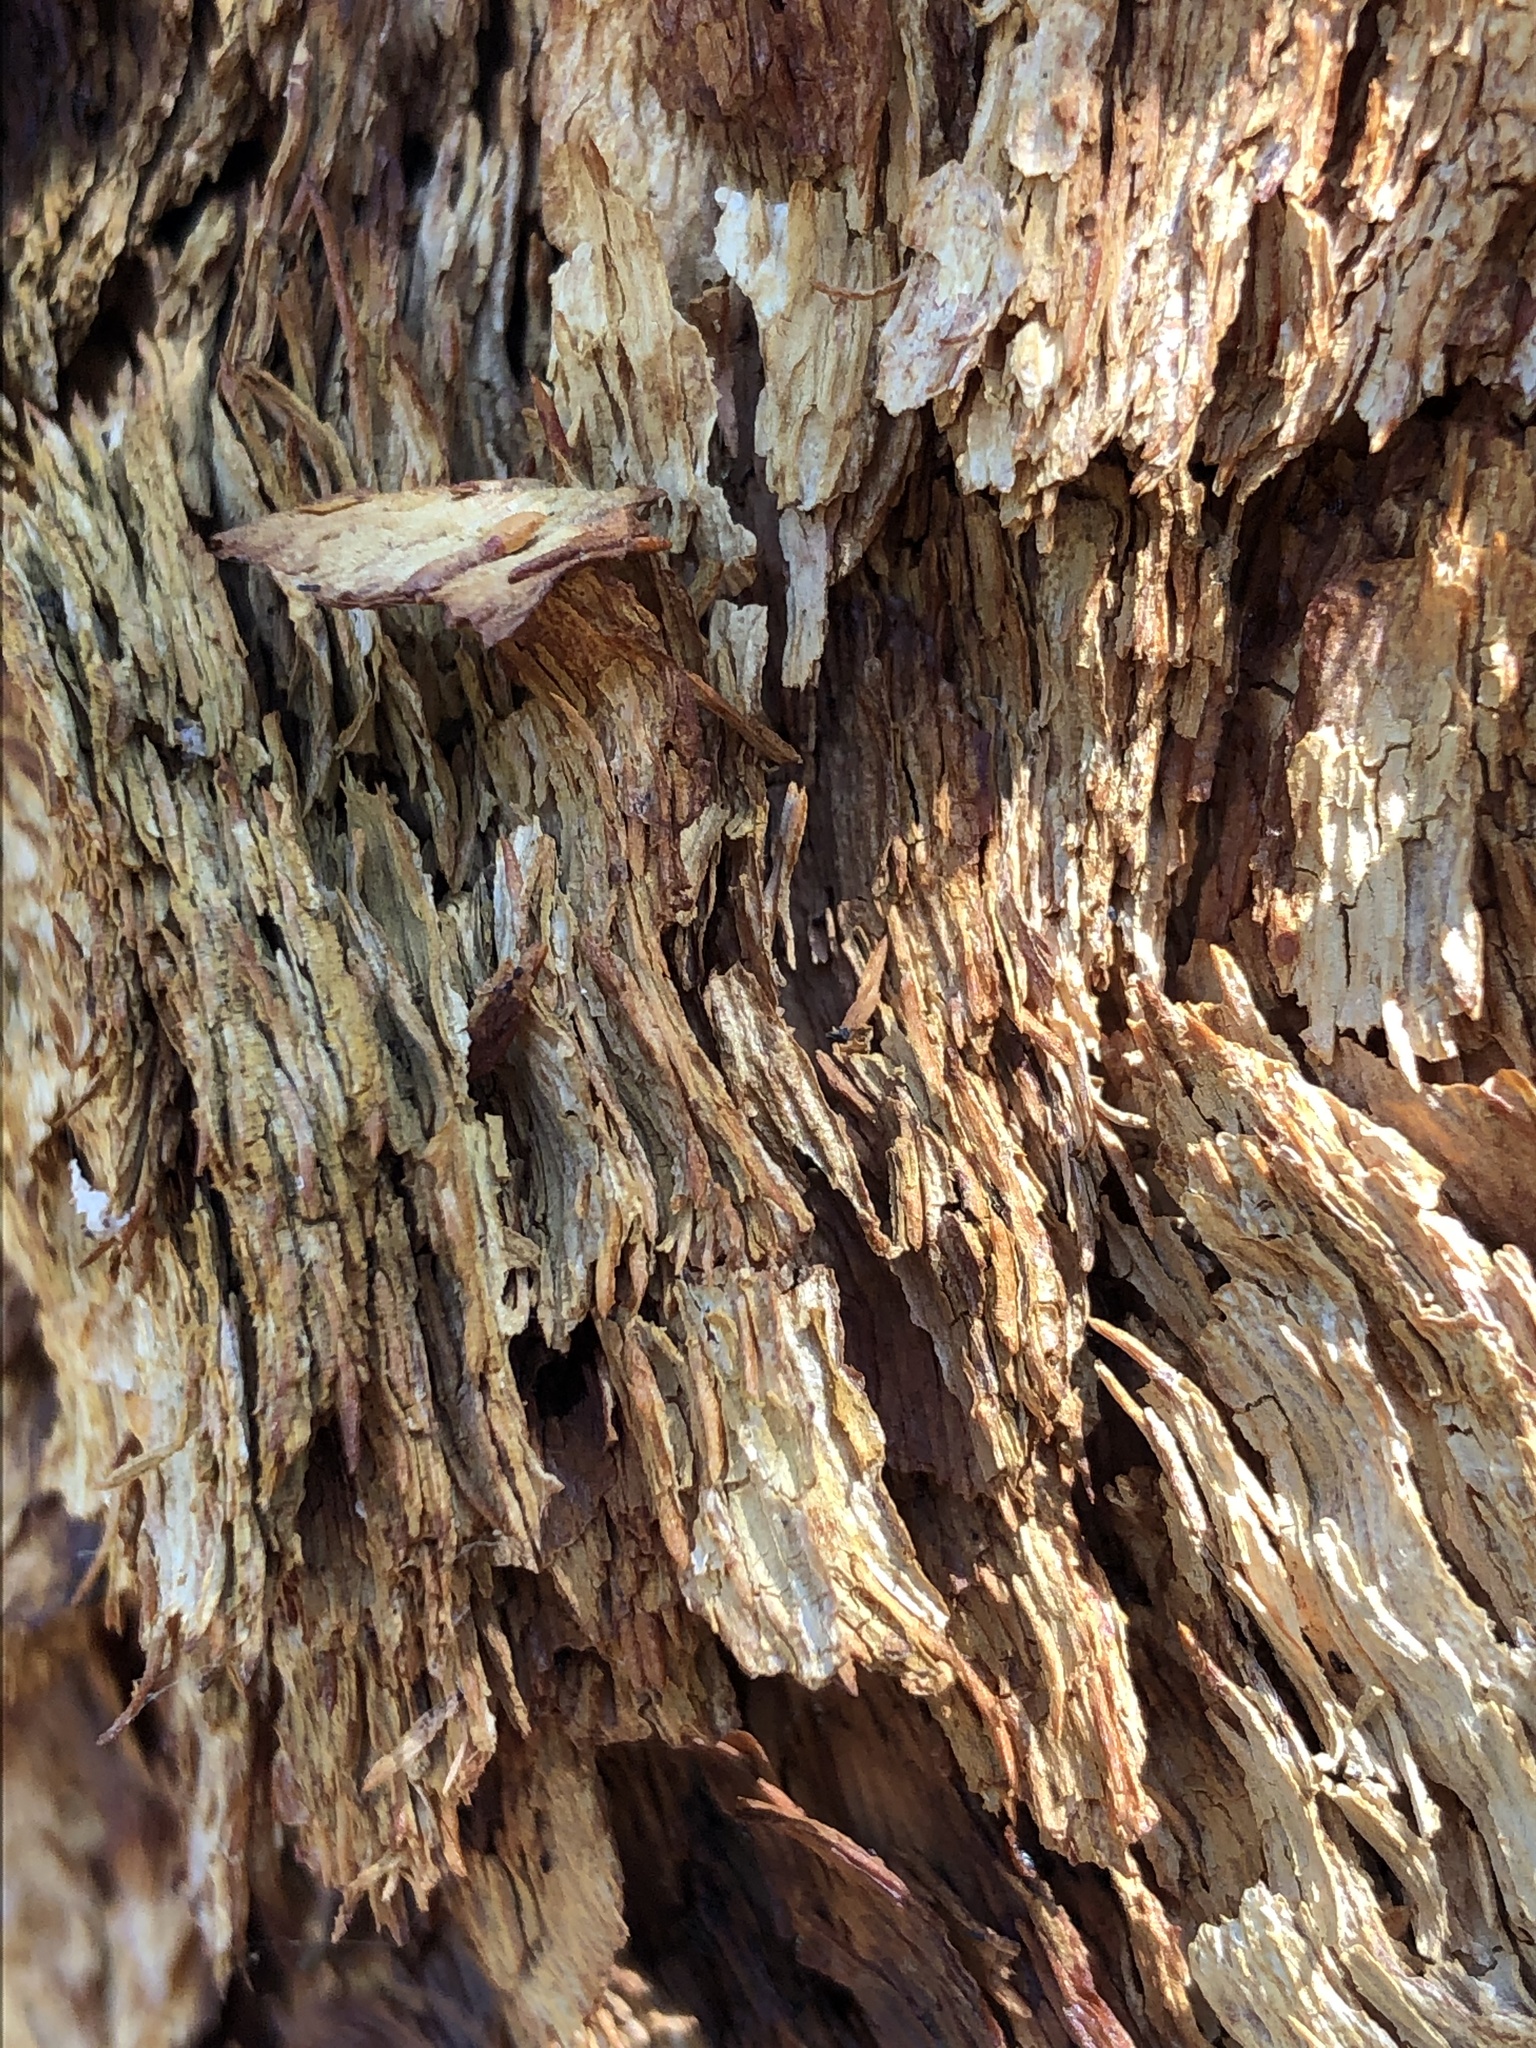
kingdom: Plantae
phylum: Tracheophyta
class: Magnoliopsida
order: Myrtales
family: Myrtaceae
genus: Corymbia
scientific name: Corymbia leichhardtii
